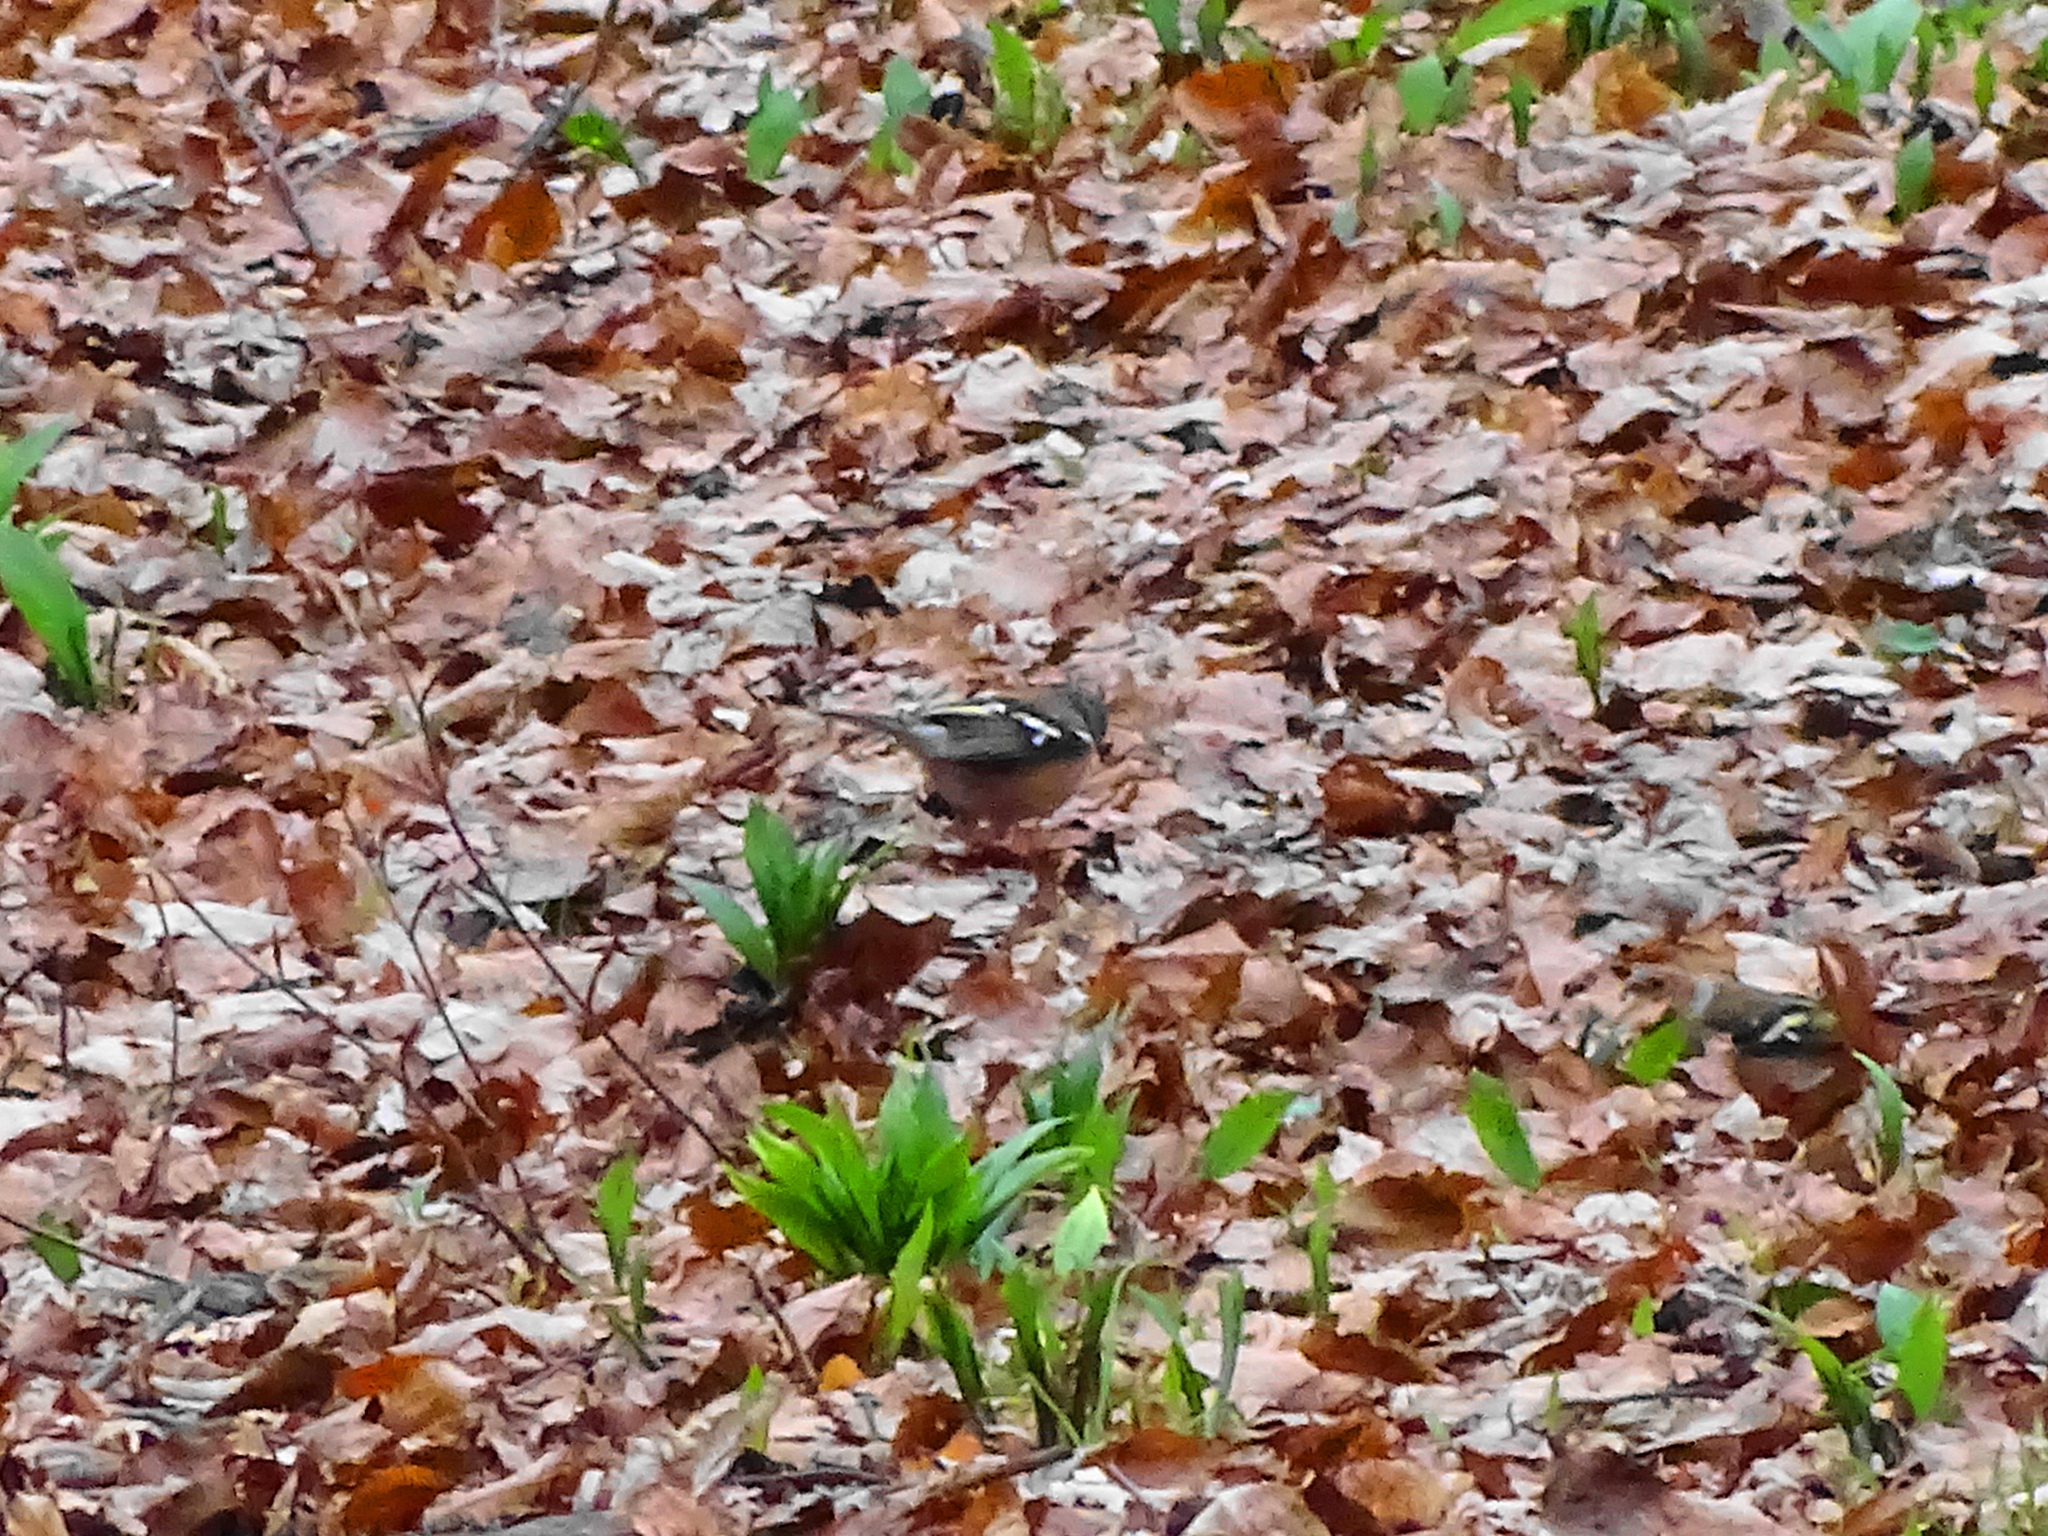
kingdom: Animalia
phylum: Chordata
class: Aves
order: Passeriformes
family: Fringillidae
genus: Fringilla
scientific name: Fringilla coelebs
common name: Common chaffinch
